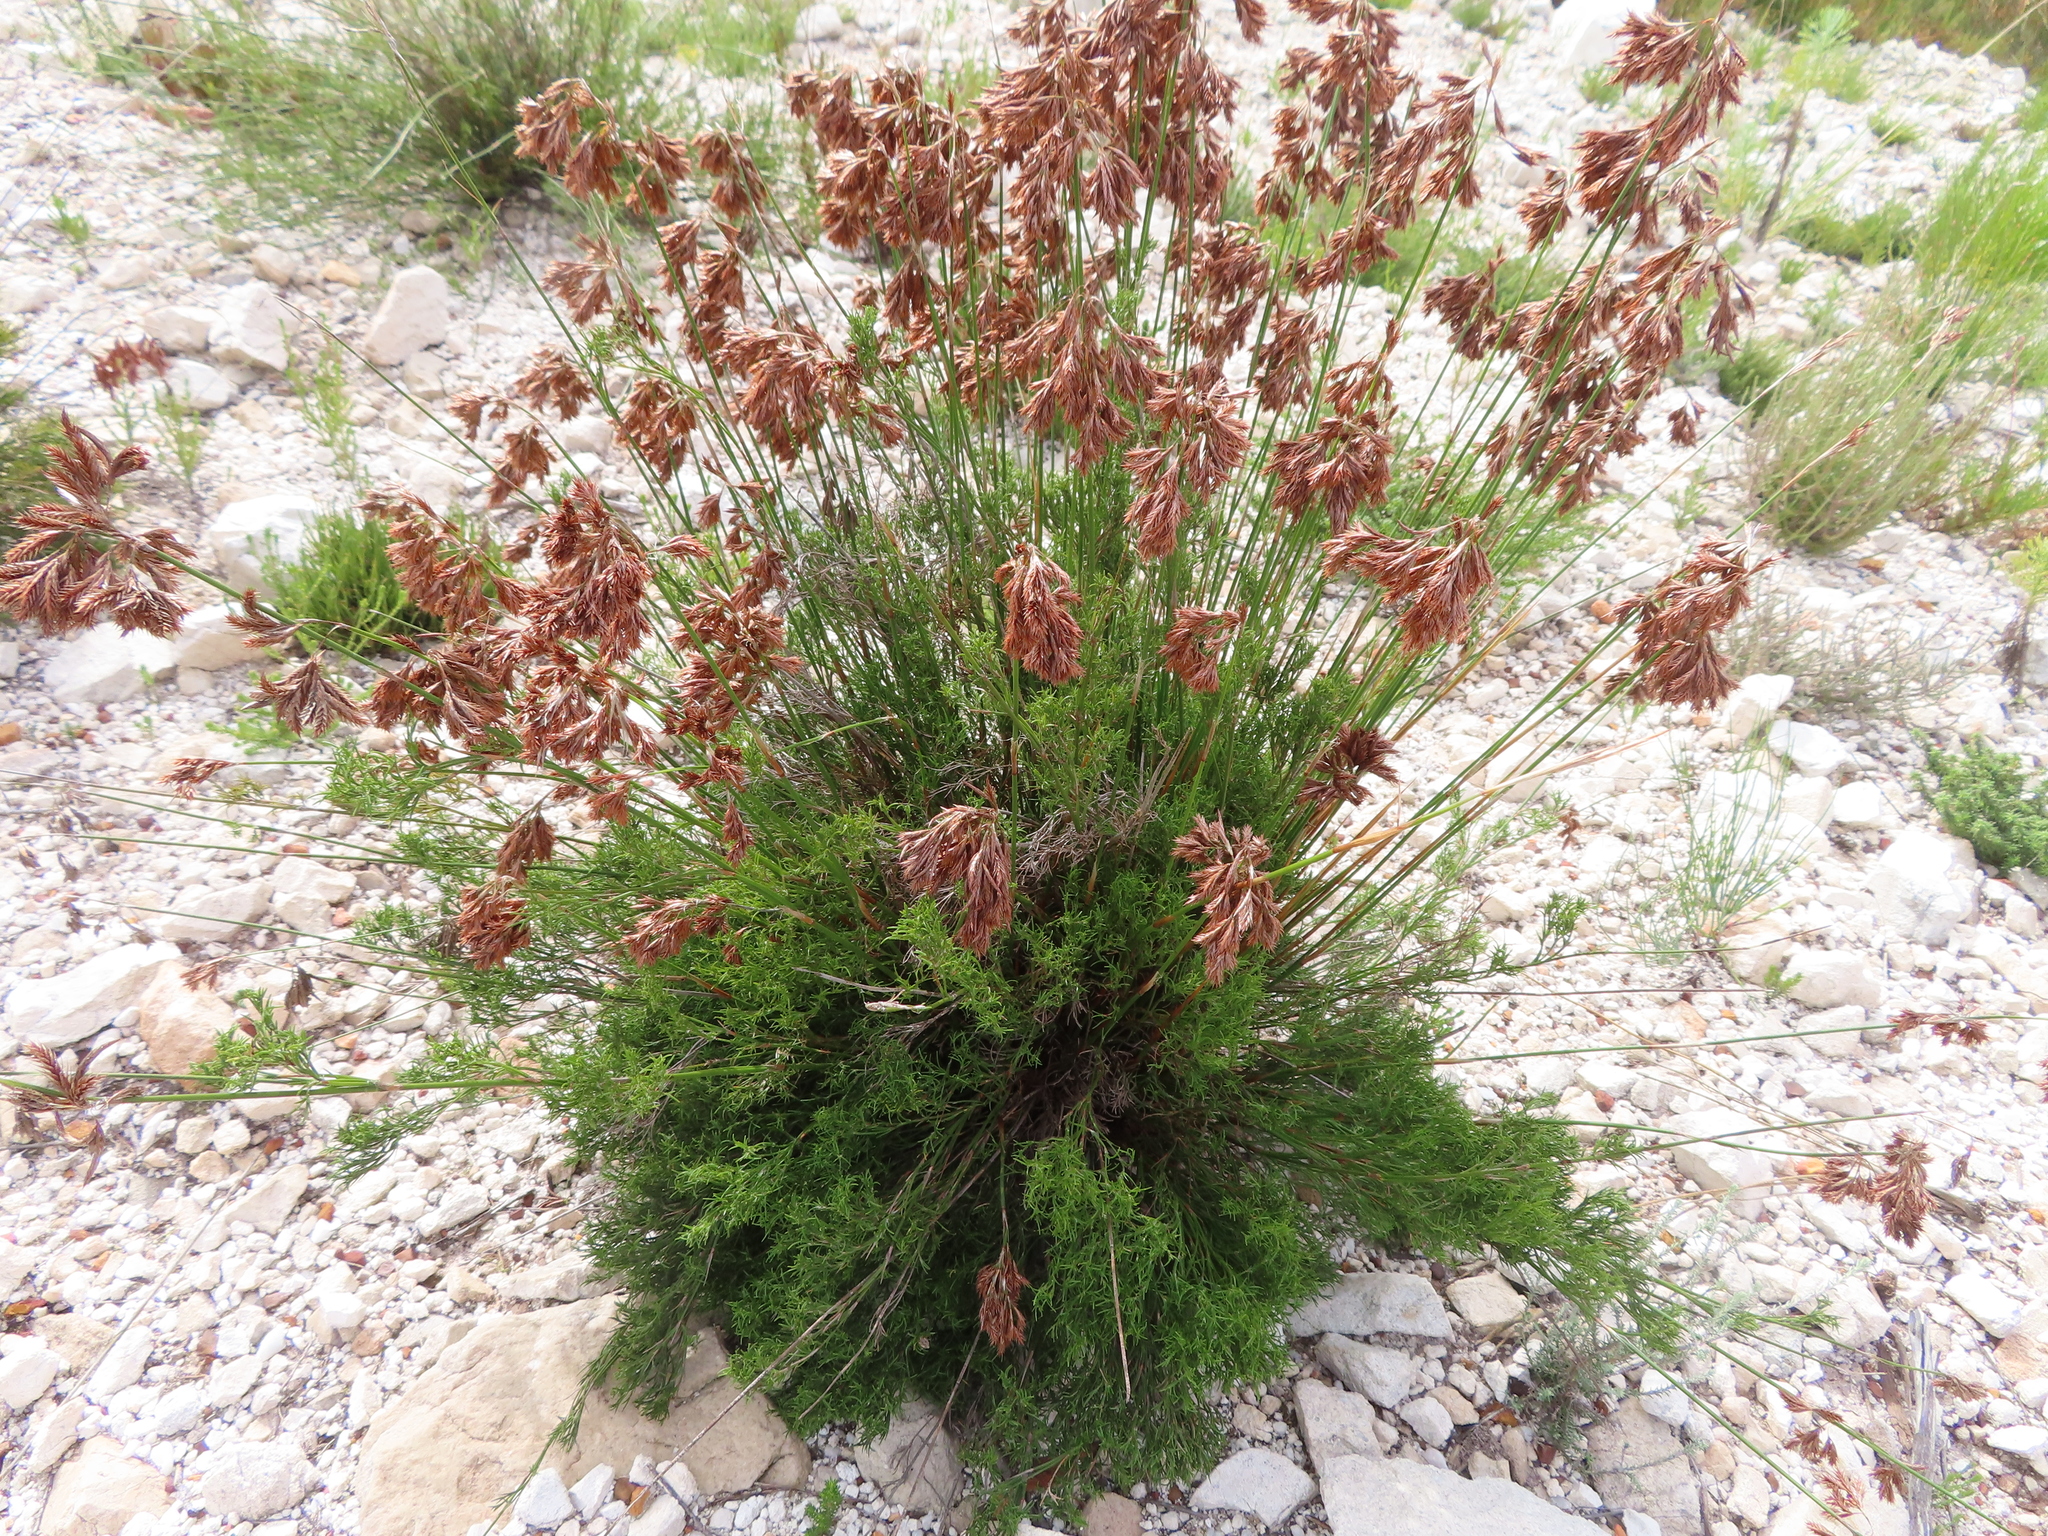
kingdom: Plantae
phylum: Tracheophyta
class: Liliopsida
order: Poales
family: Restionaceae
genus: Thamnochortus
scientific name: Thamnochortus fruticosus
